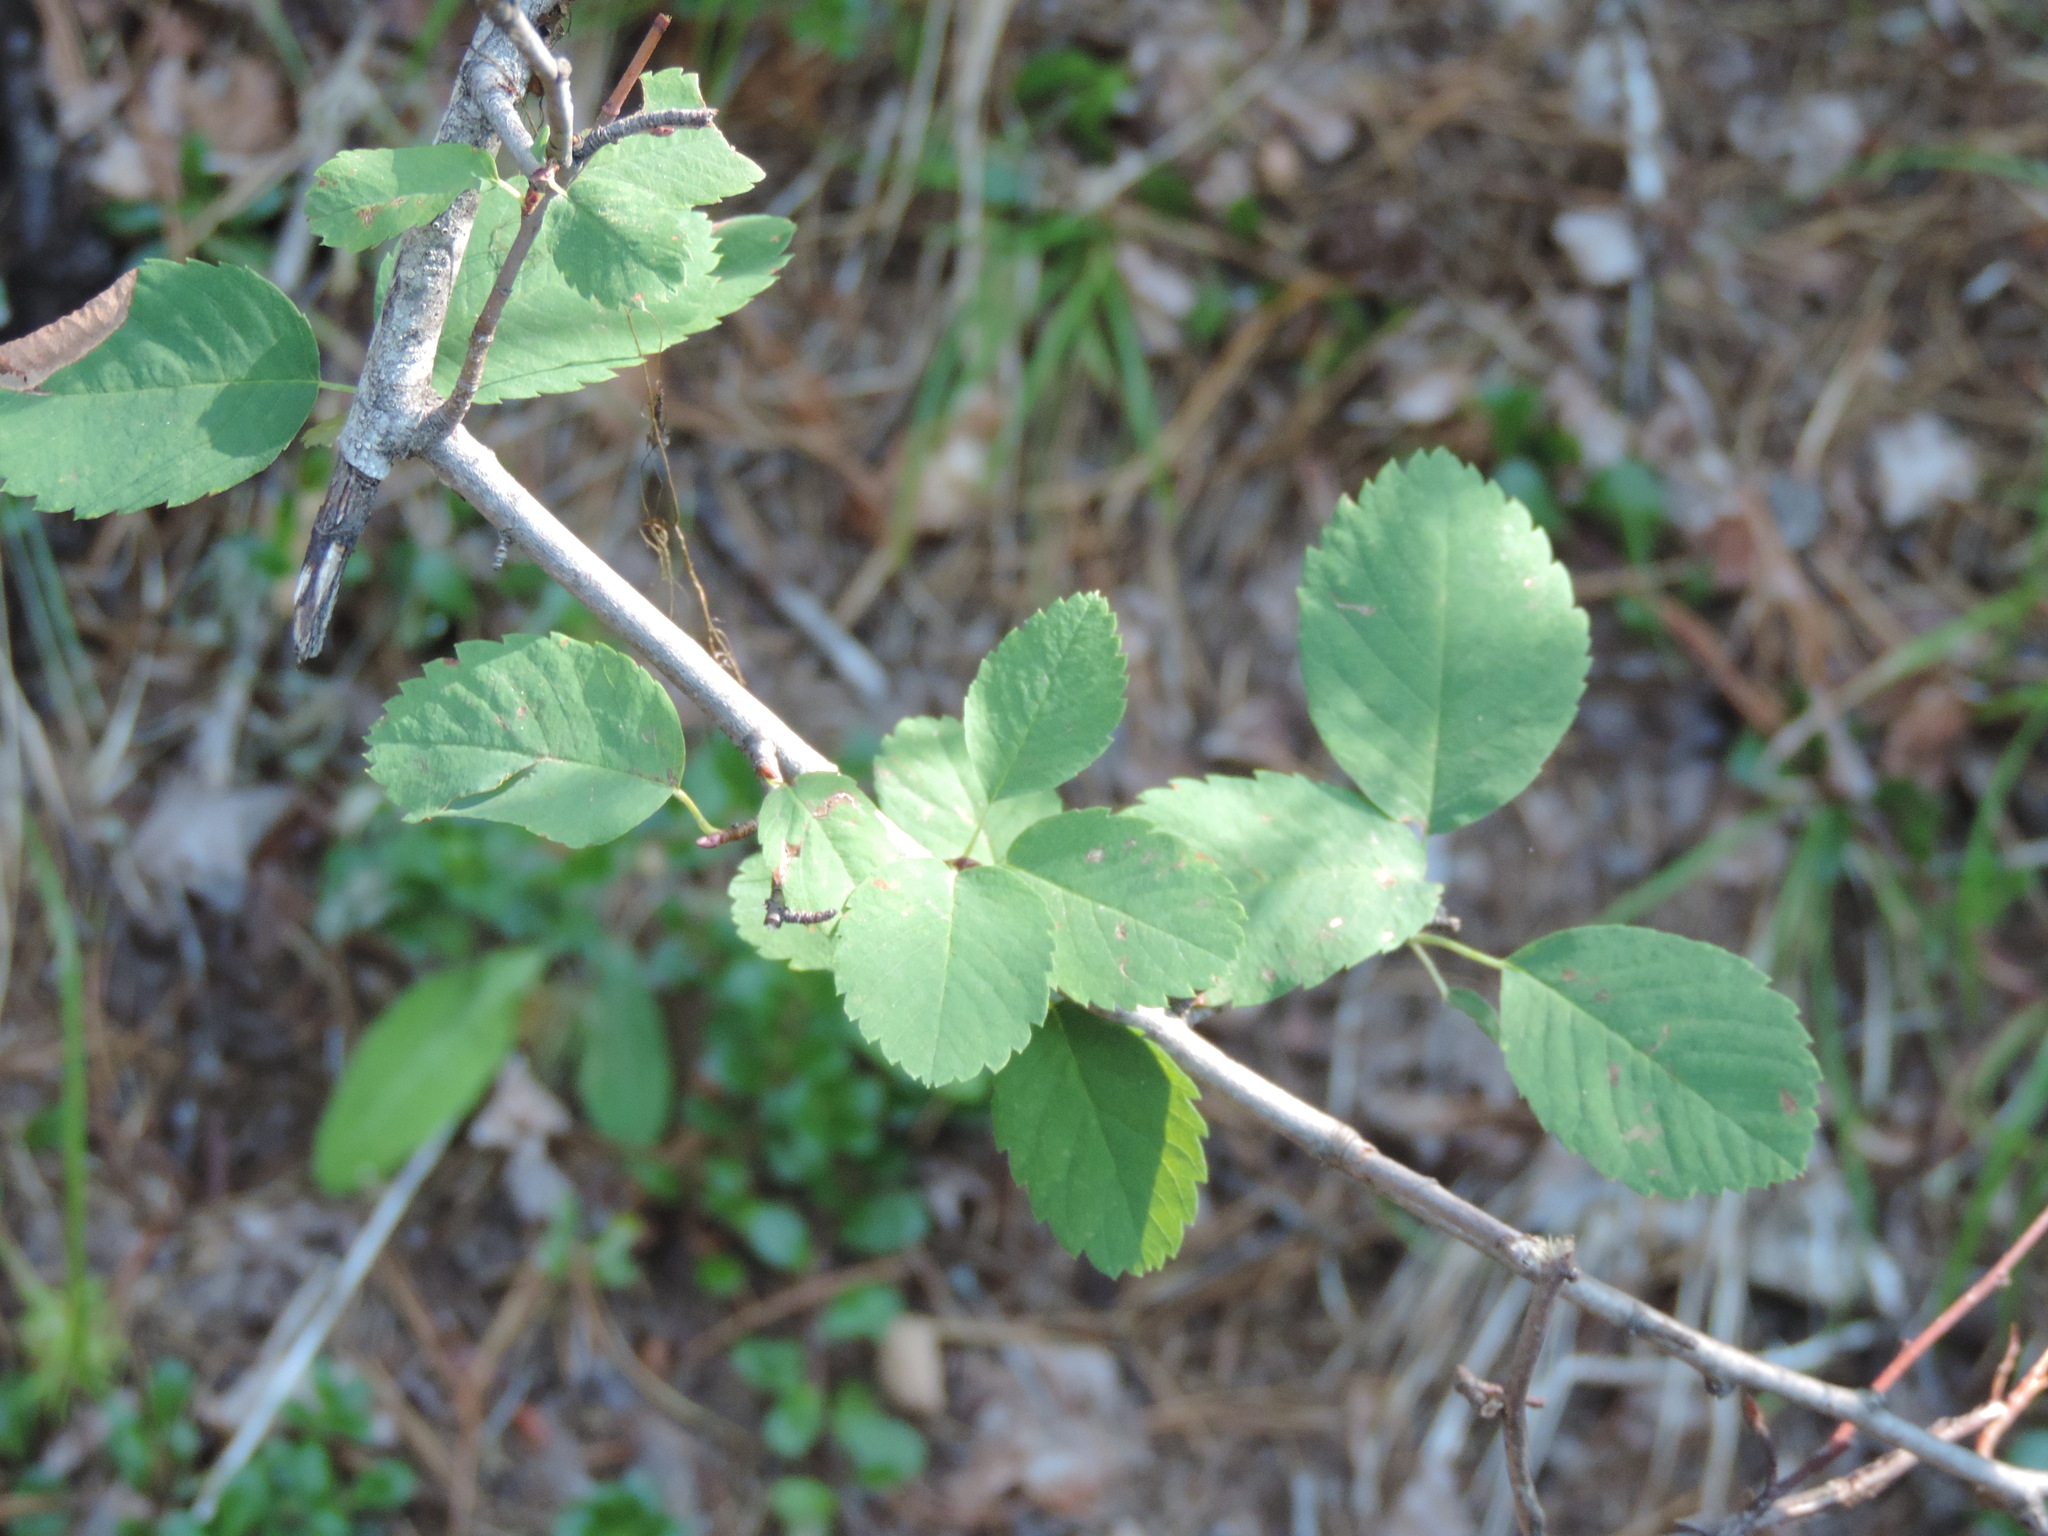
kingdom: Plantae
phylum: Tracheophyta
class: Magnoliopsida
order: Rosales
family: Rosaceae
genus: Amelanchier
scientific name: Amelanchier alnifolia
